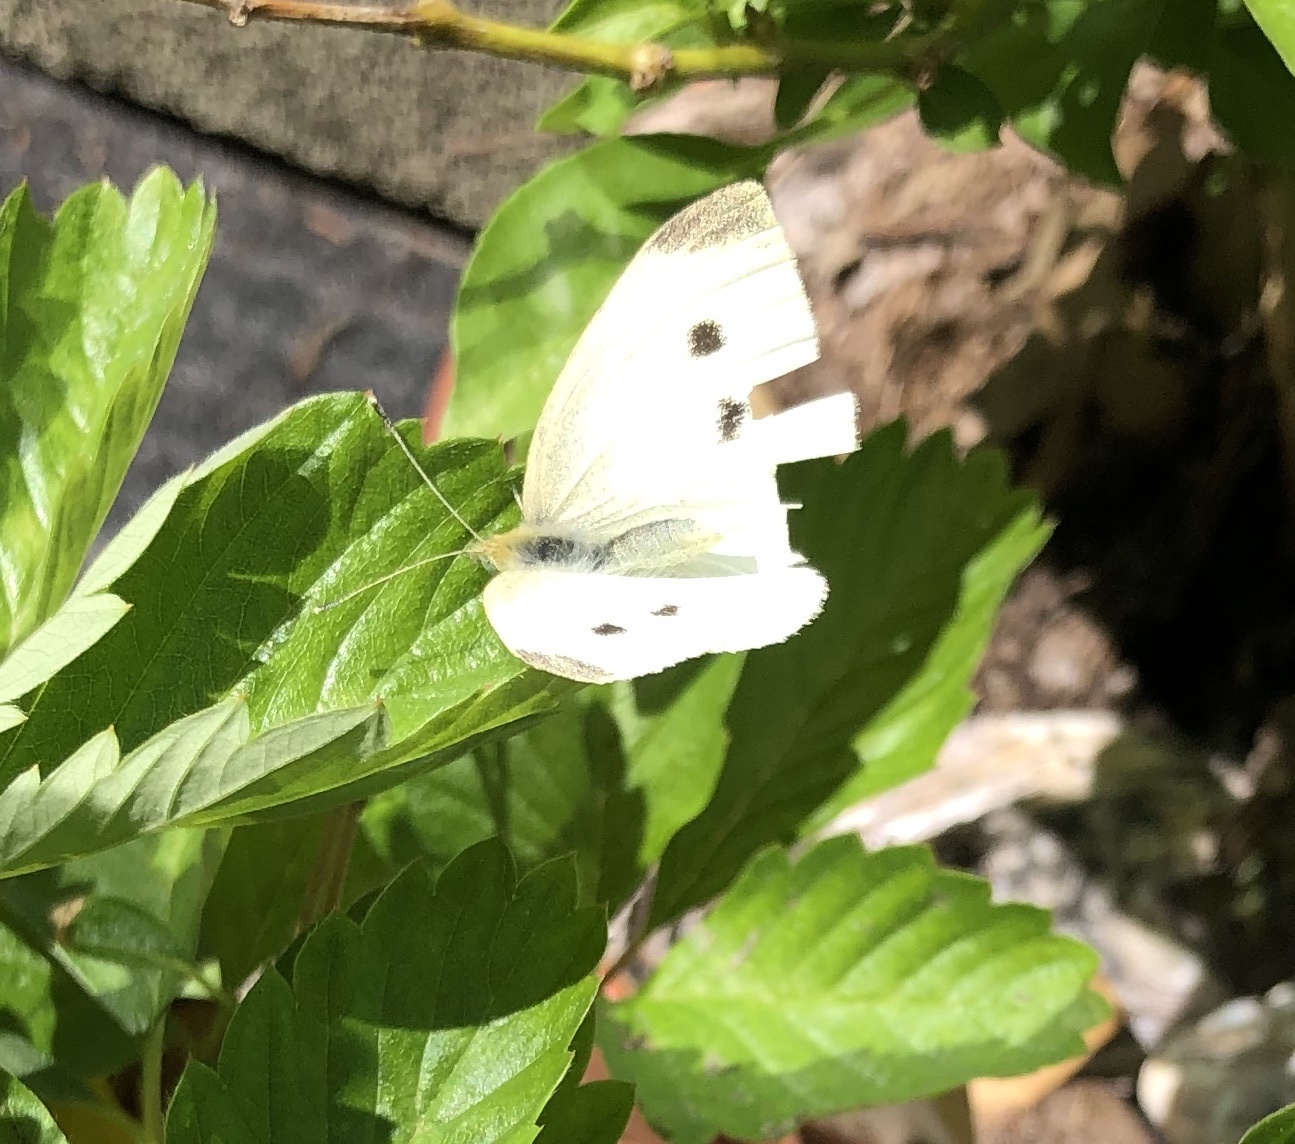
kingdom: Animalia
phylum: Arthropoda
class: Insecta
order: Lepidoptera
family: Pieridae
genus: Pieris
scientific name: Pieris rapae
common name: Small white
